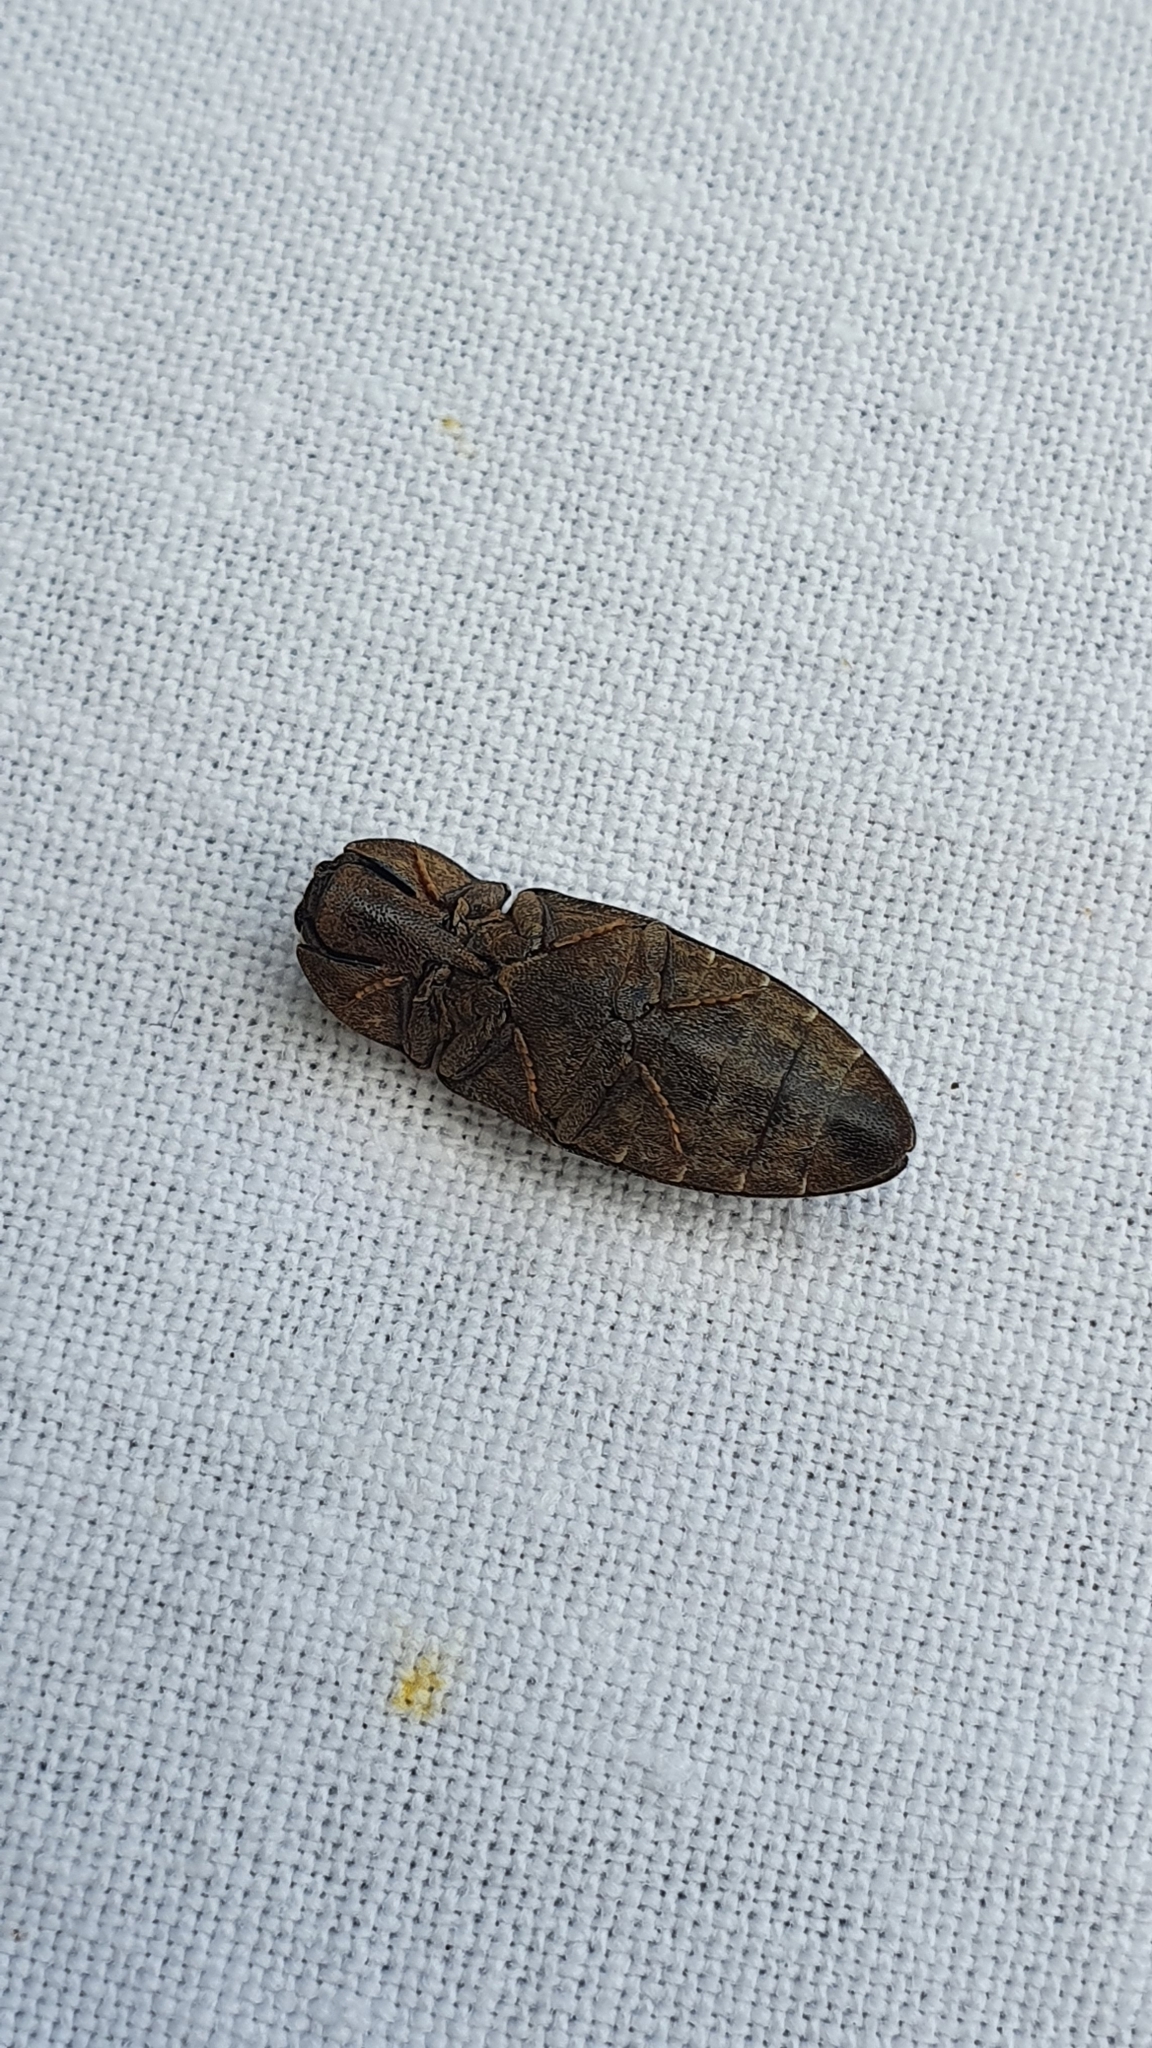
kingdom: Animalia
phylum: Arthropoda
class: Insecta
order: Coleoptera
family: Elateridae
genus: Agrypnus
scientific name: Agrypnus murinus
